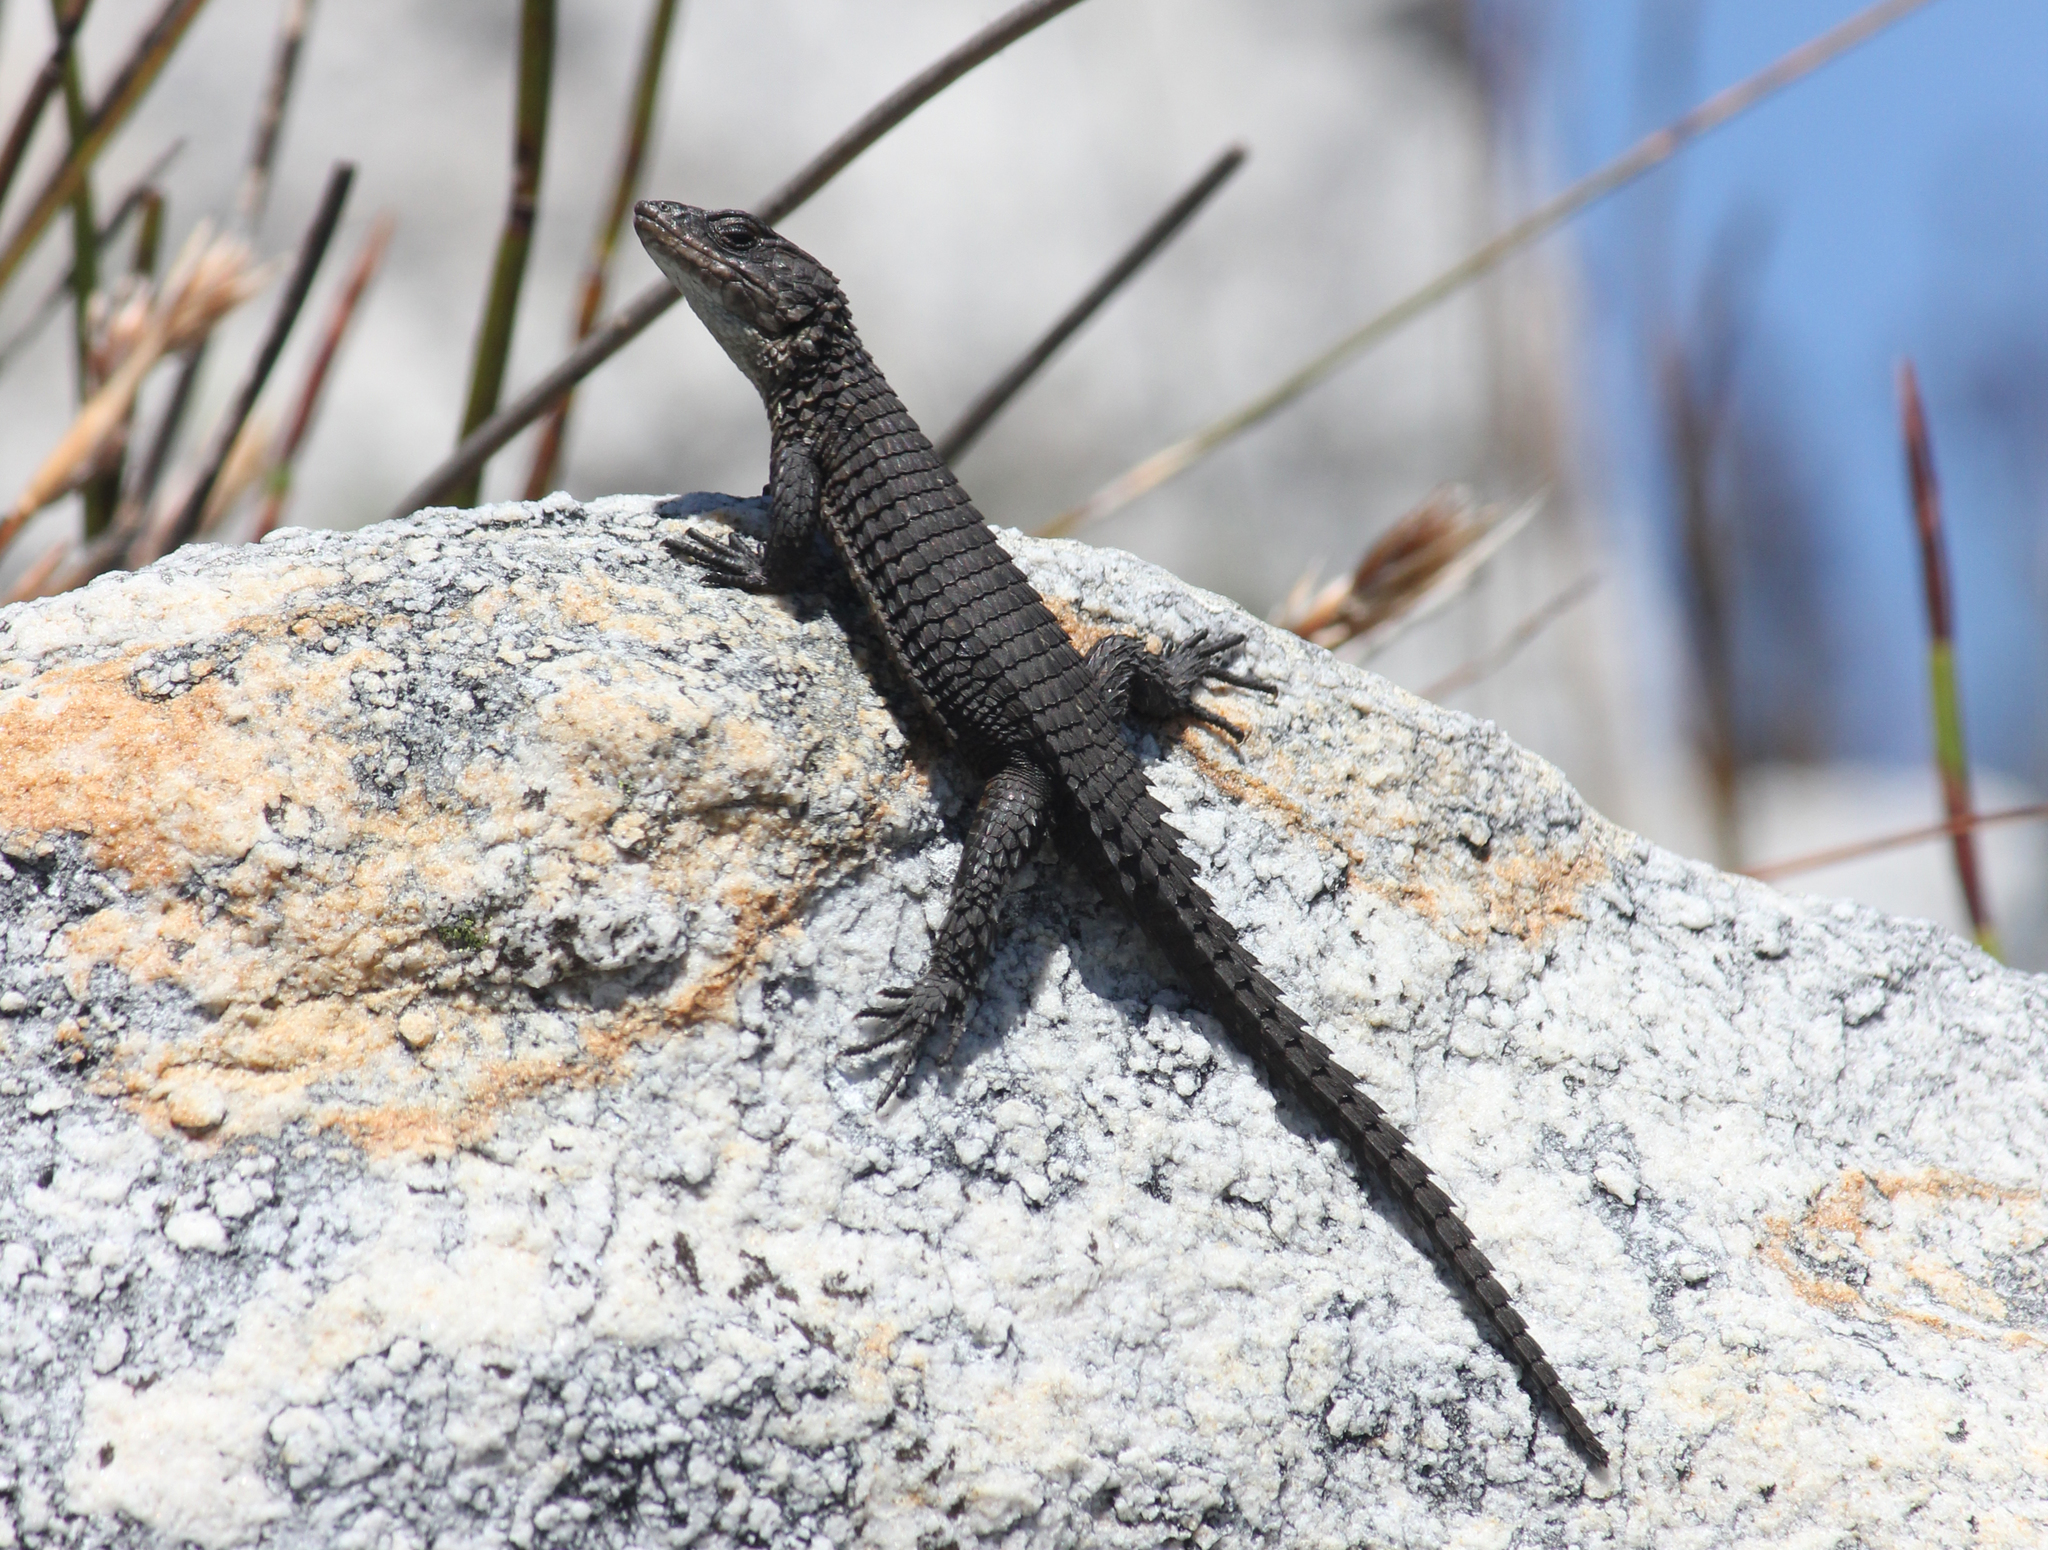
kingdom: Animalia
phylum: Chordata
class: Squamata
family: Cordylidae
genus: Cordylus
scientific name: Cordylus oelofseni
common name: Oelofsen's girdled lizard
